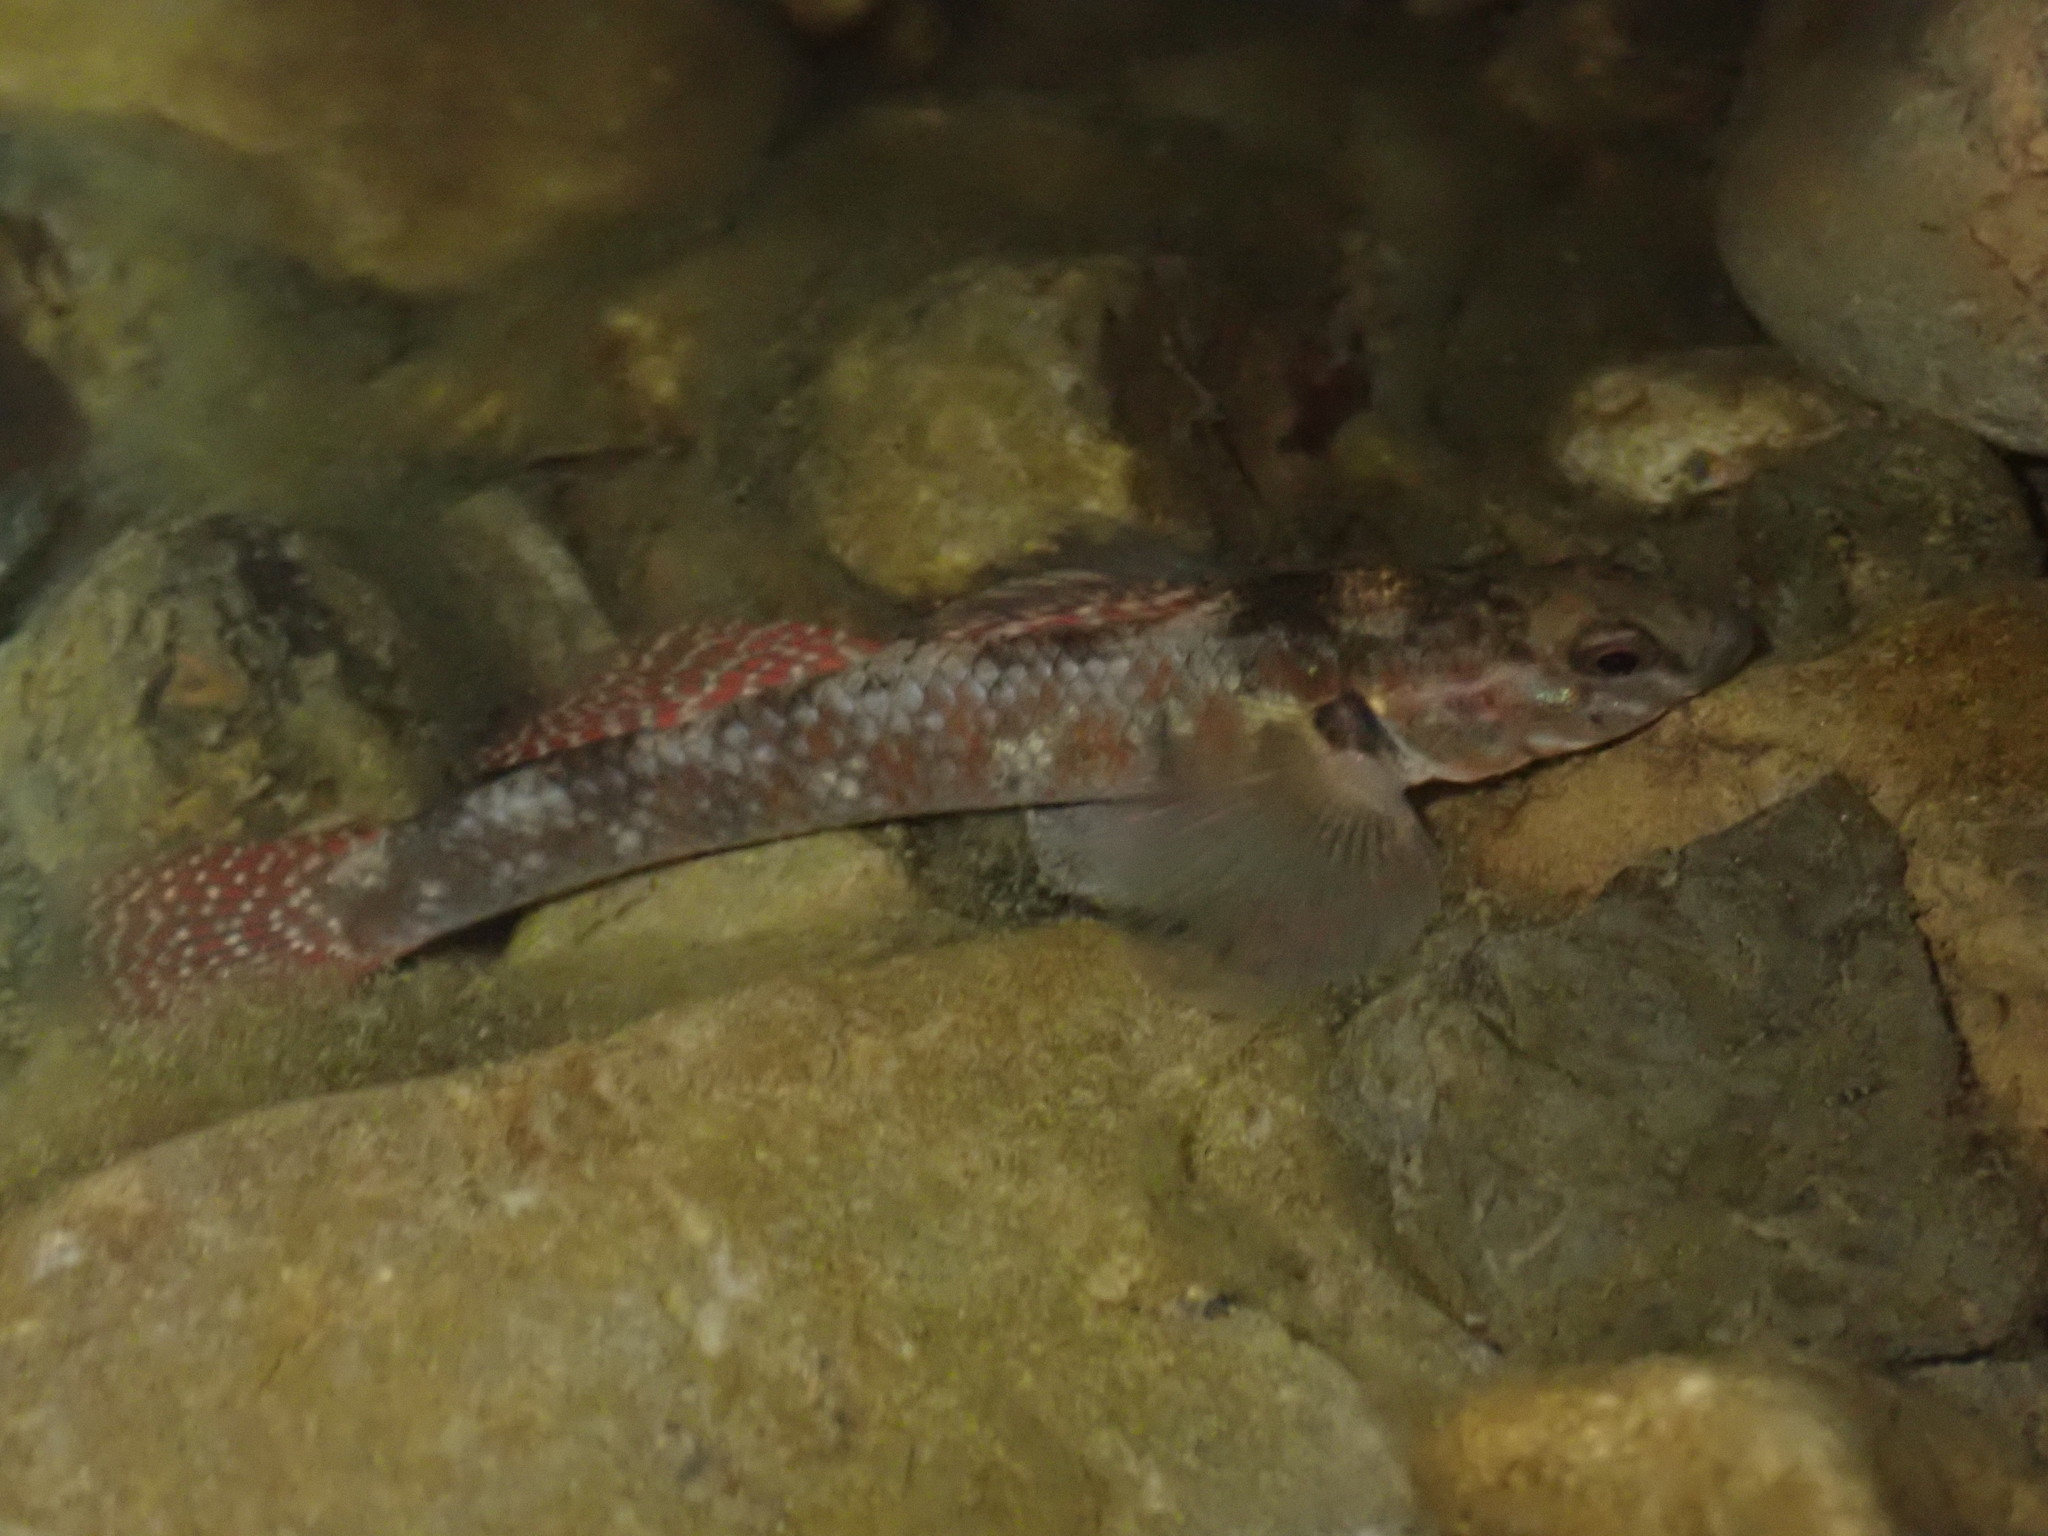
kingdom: Animalia
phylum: Chordata
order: Perciformes
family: Eleotridae
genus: Gobiomorphus
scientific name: Gobiomorphus huttoni
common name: Redfin bully
